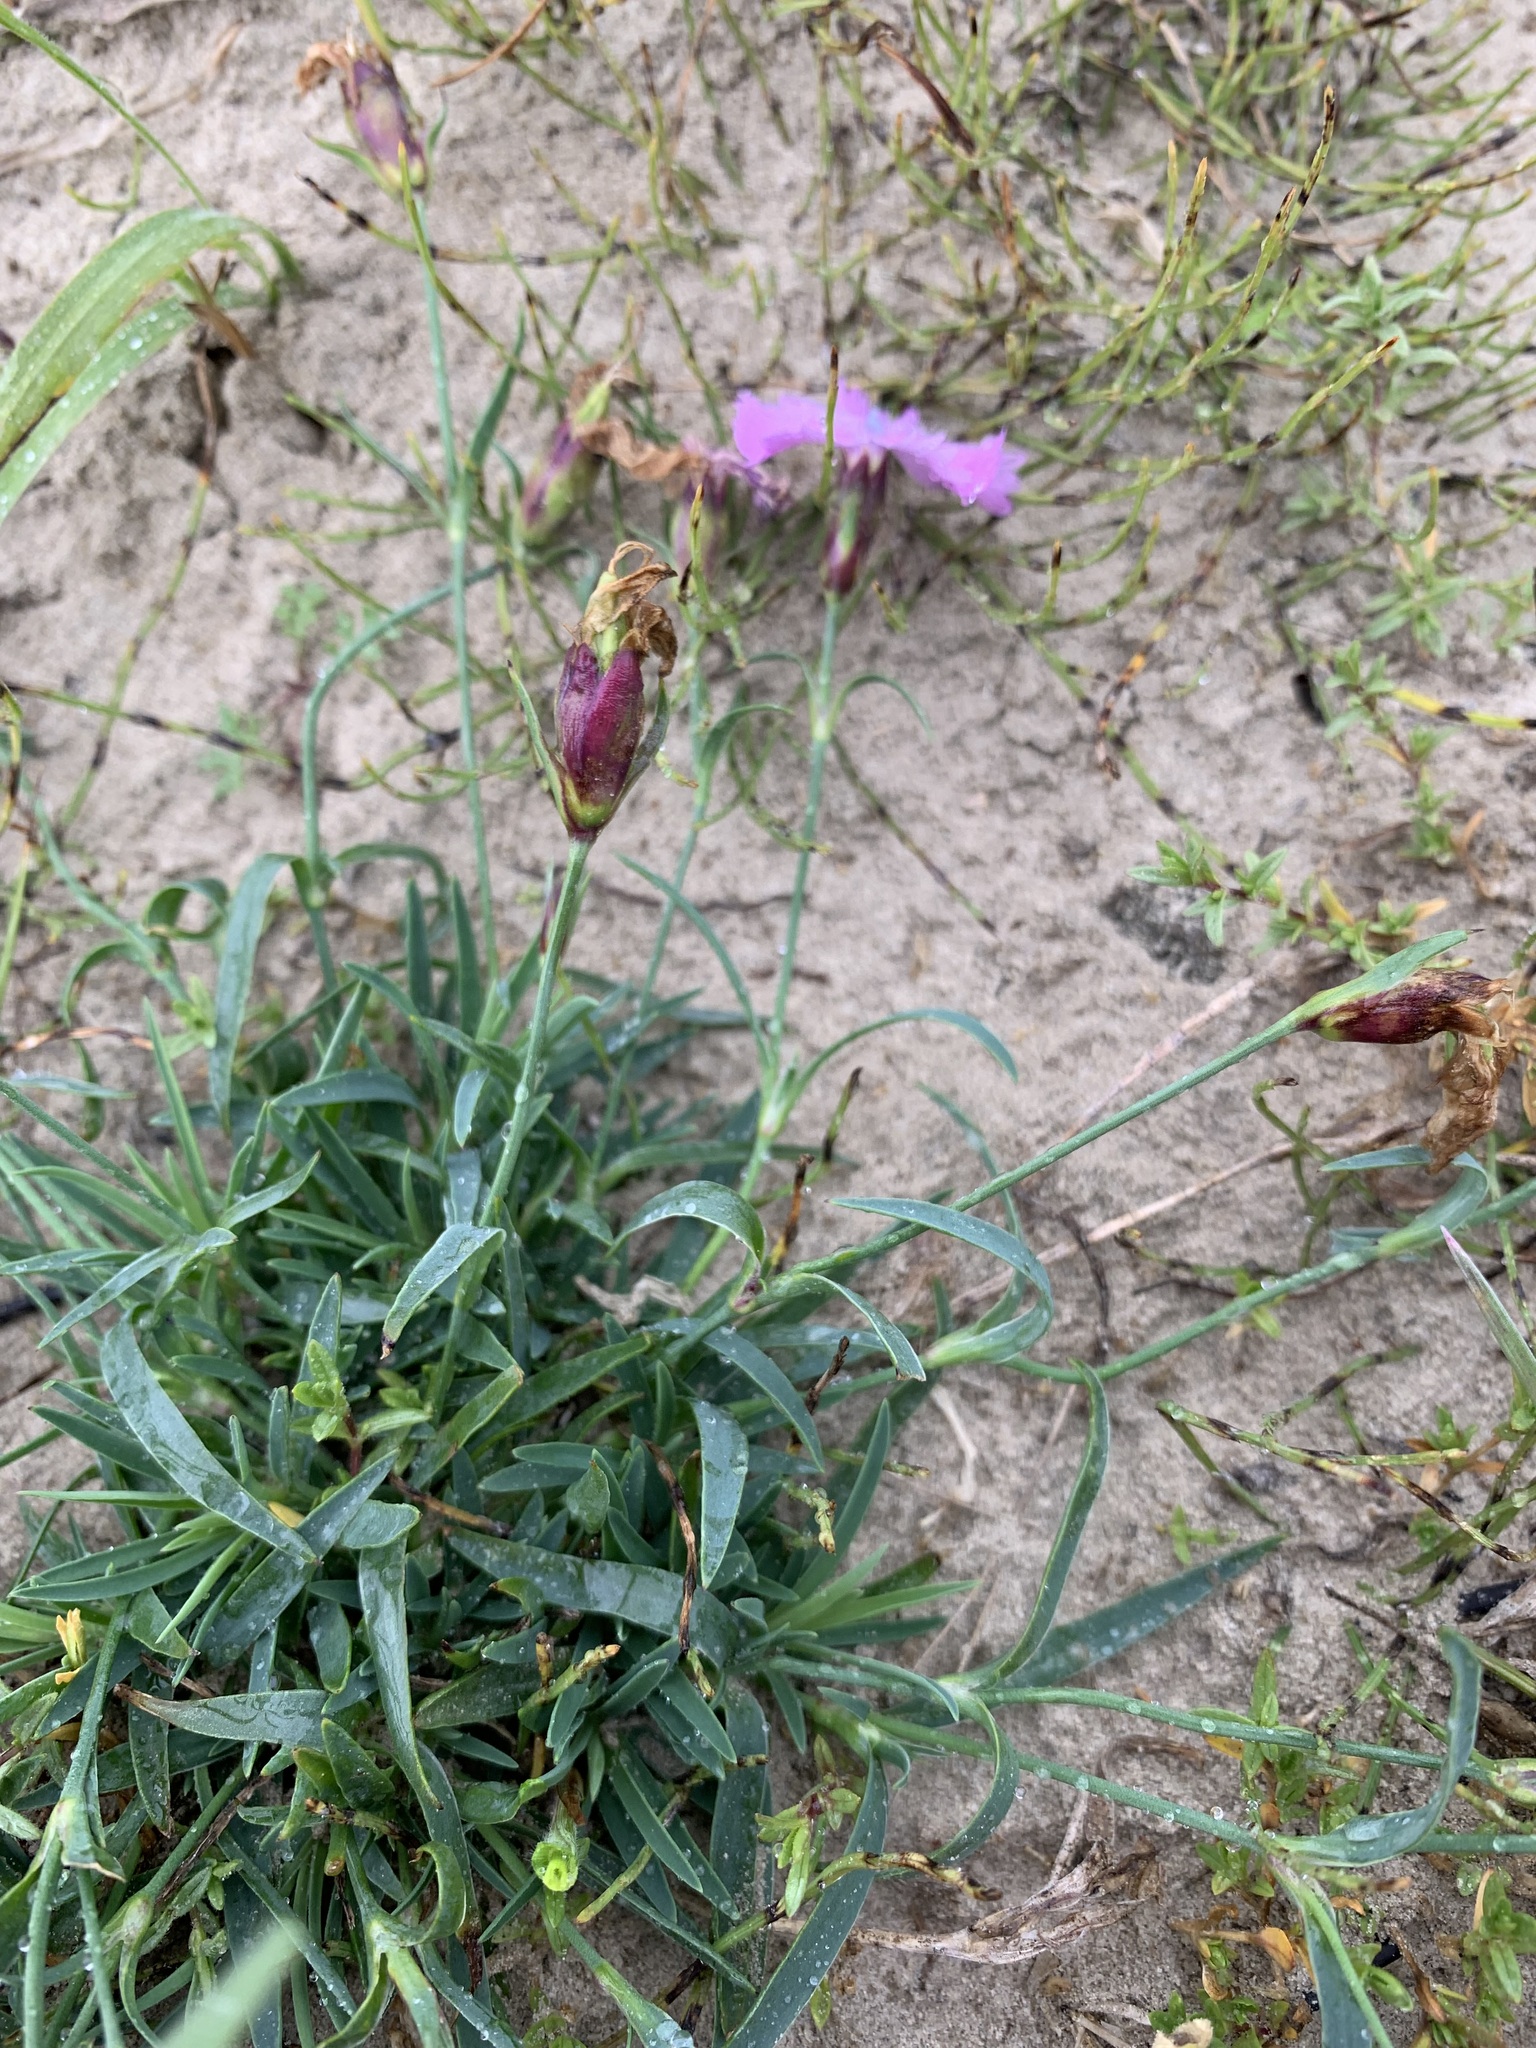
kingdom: Plantae
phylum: Tracheophyta
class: Magnoliopsida
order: Caryophyllales
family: Caryophyllaceae
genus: Dianthus
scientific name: Dianthus repens
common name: Northern pink
